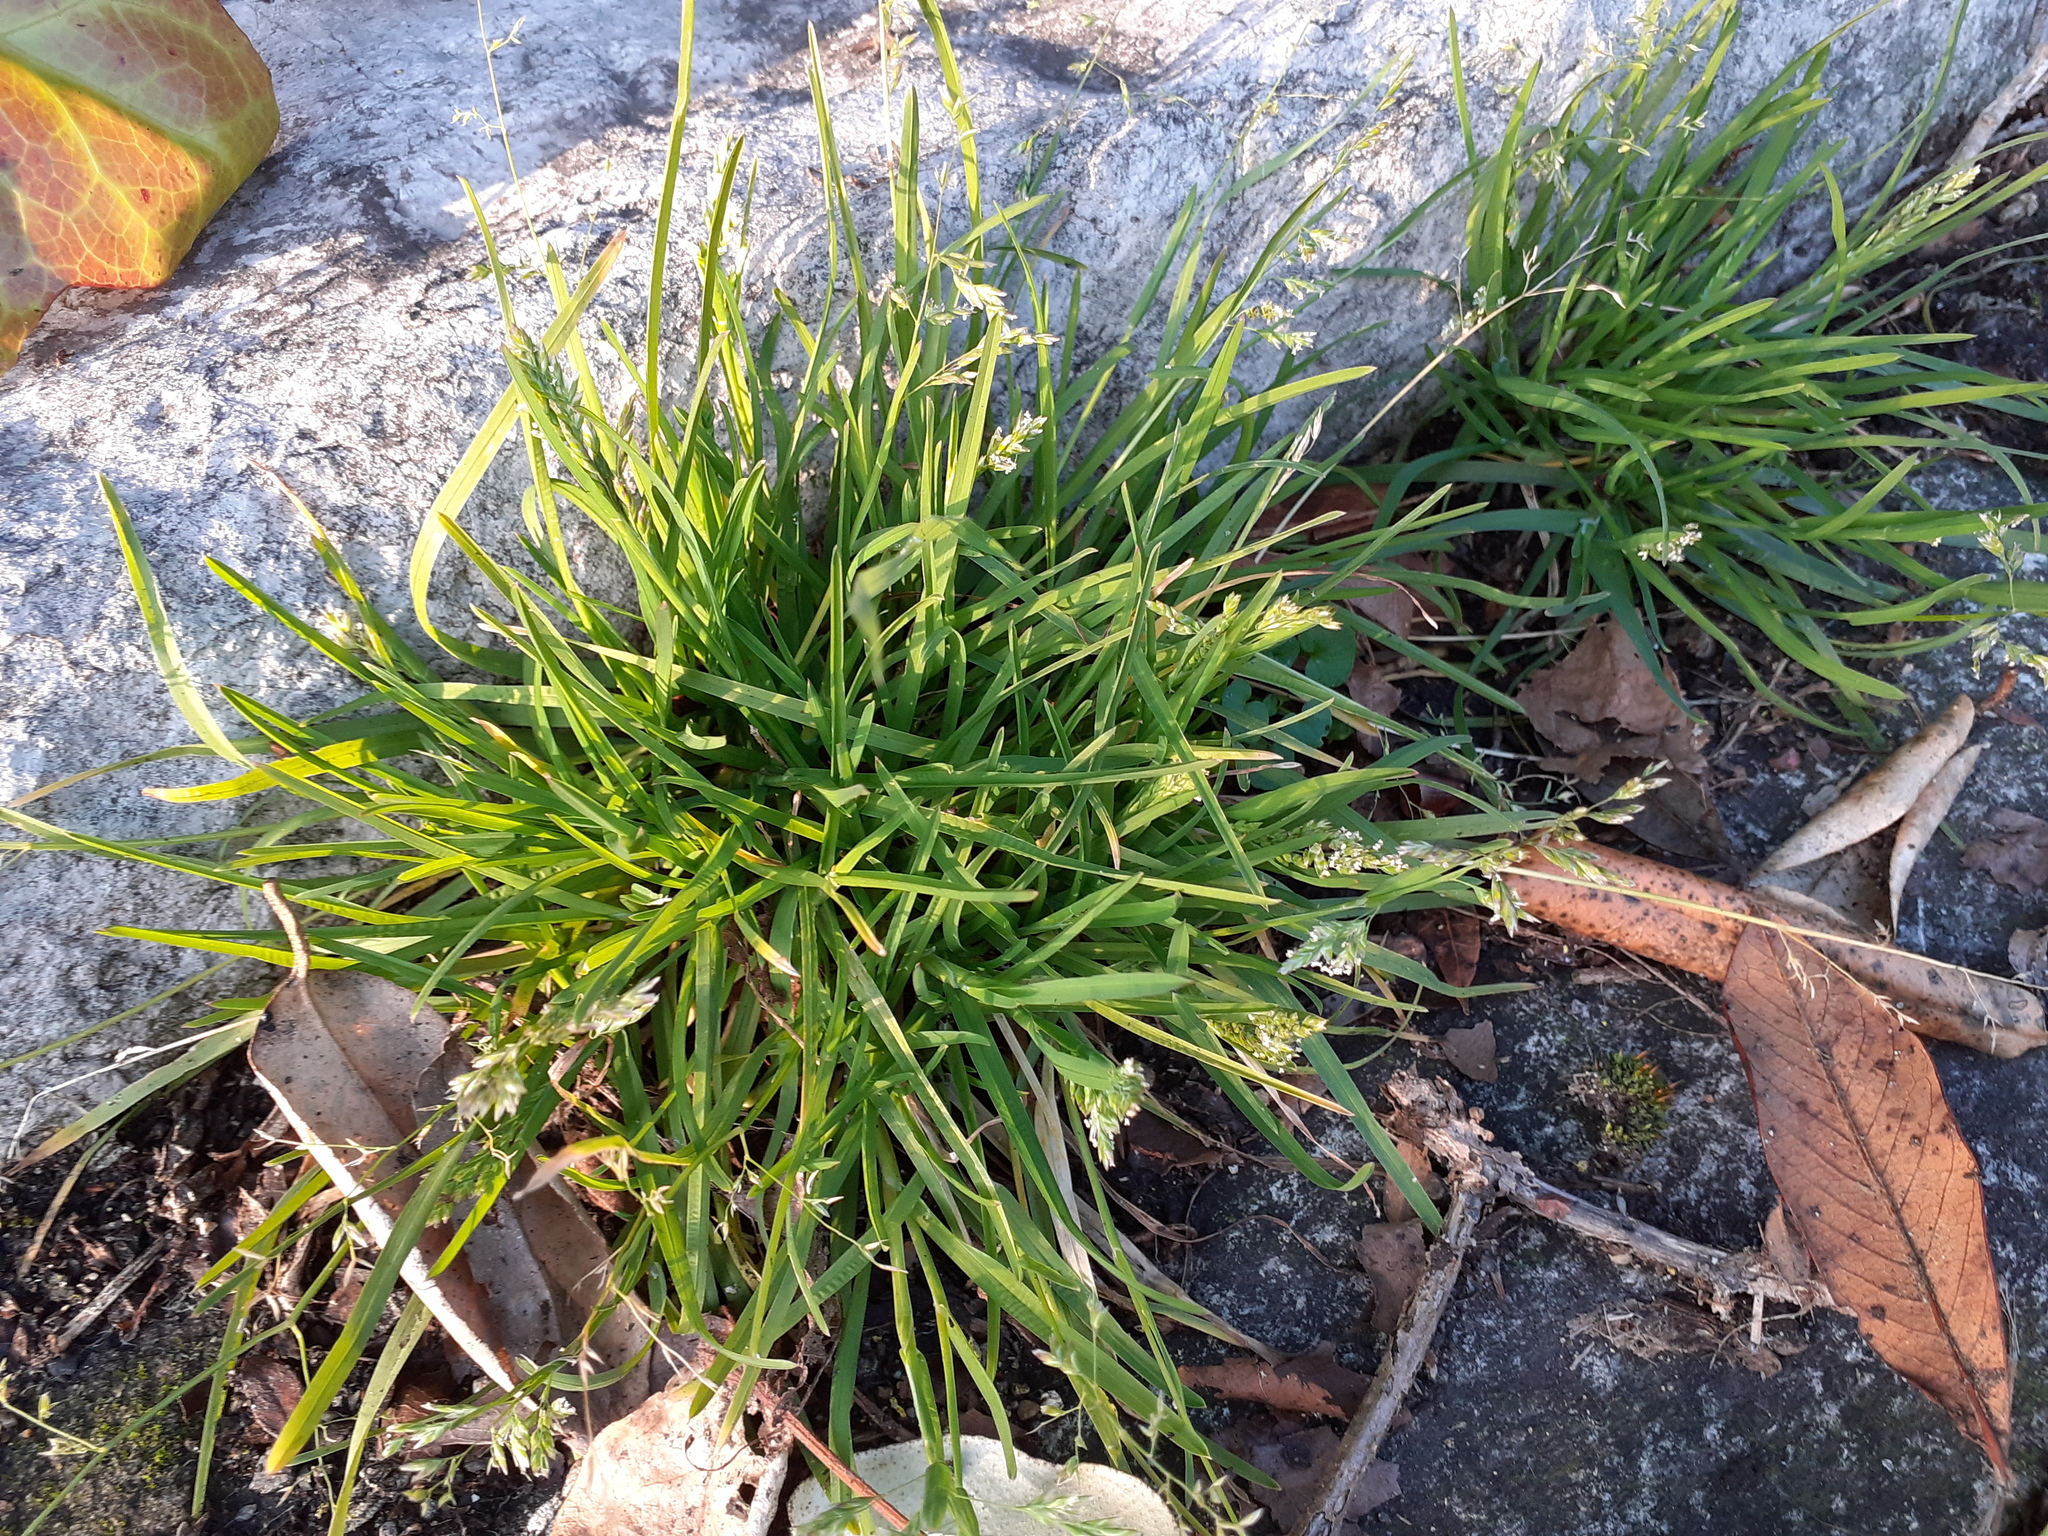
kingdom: Plantae
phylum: Tracheophyta
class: Liliopsida
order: Poales
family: Poaceae
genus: Poa
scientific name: Poa annua
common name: Annual bluegrass
